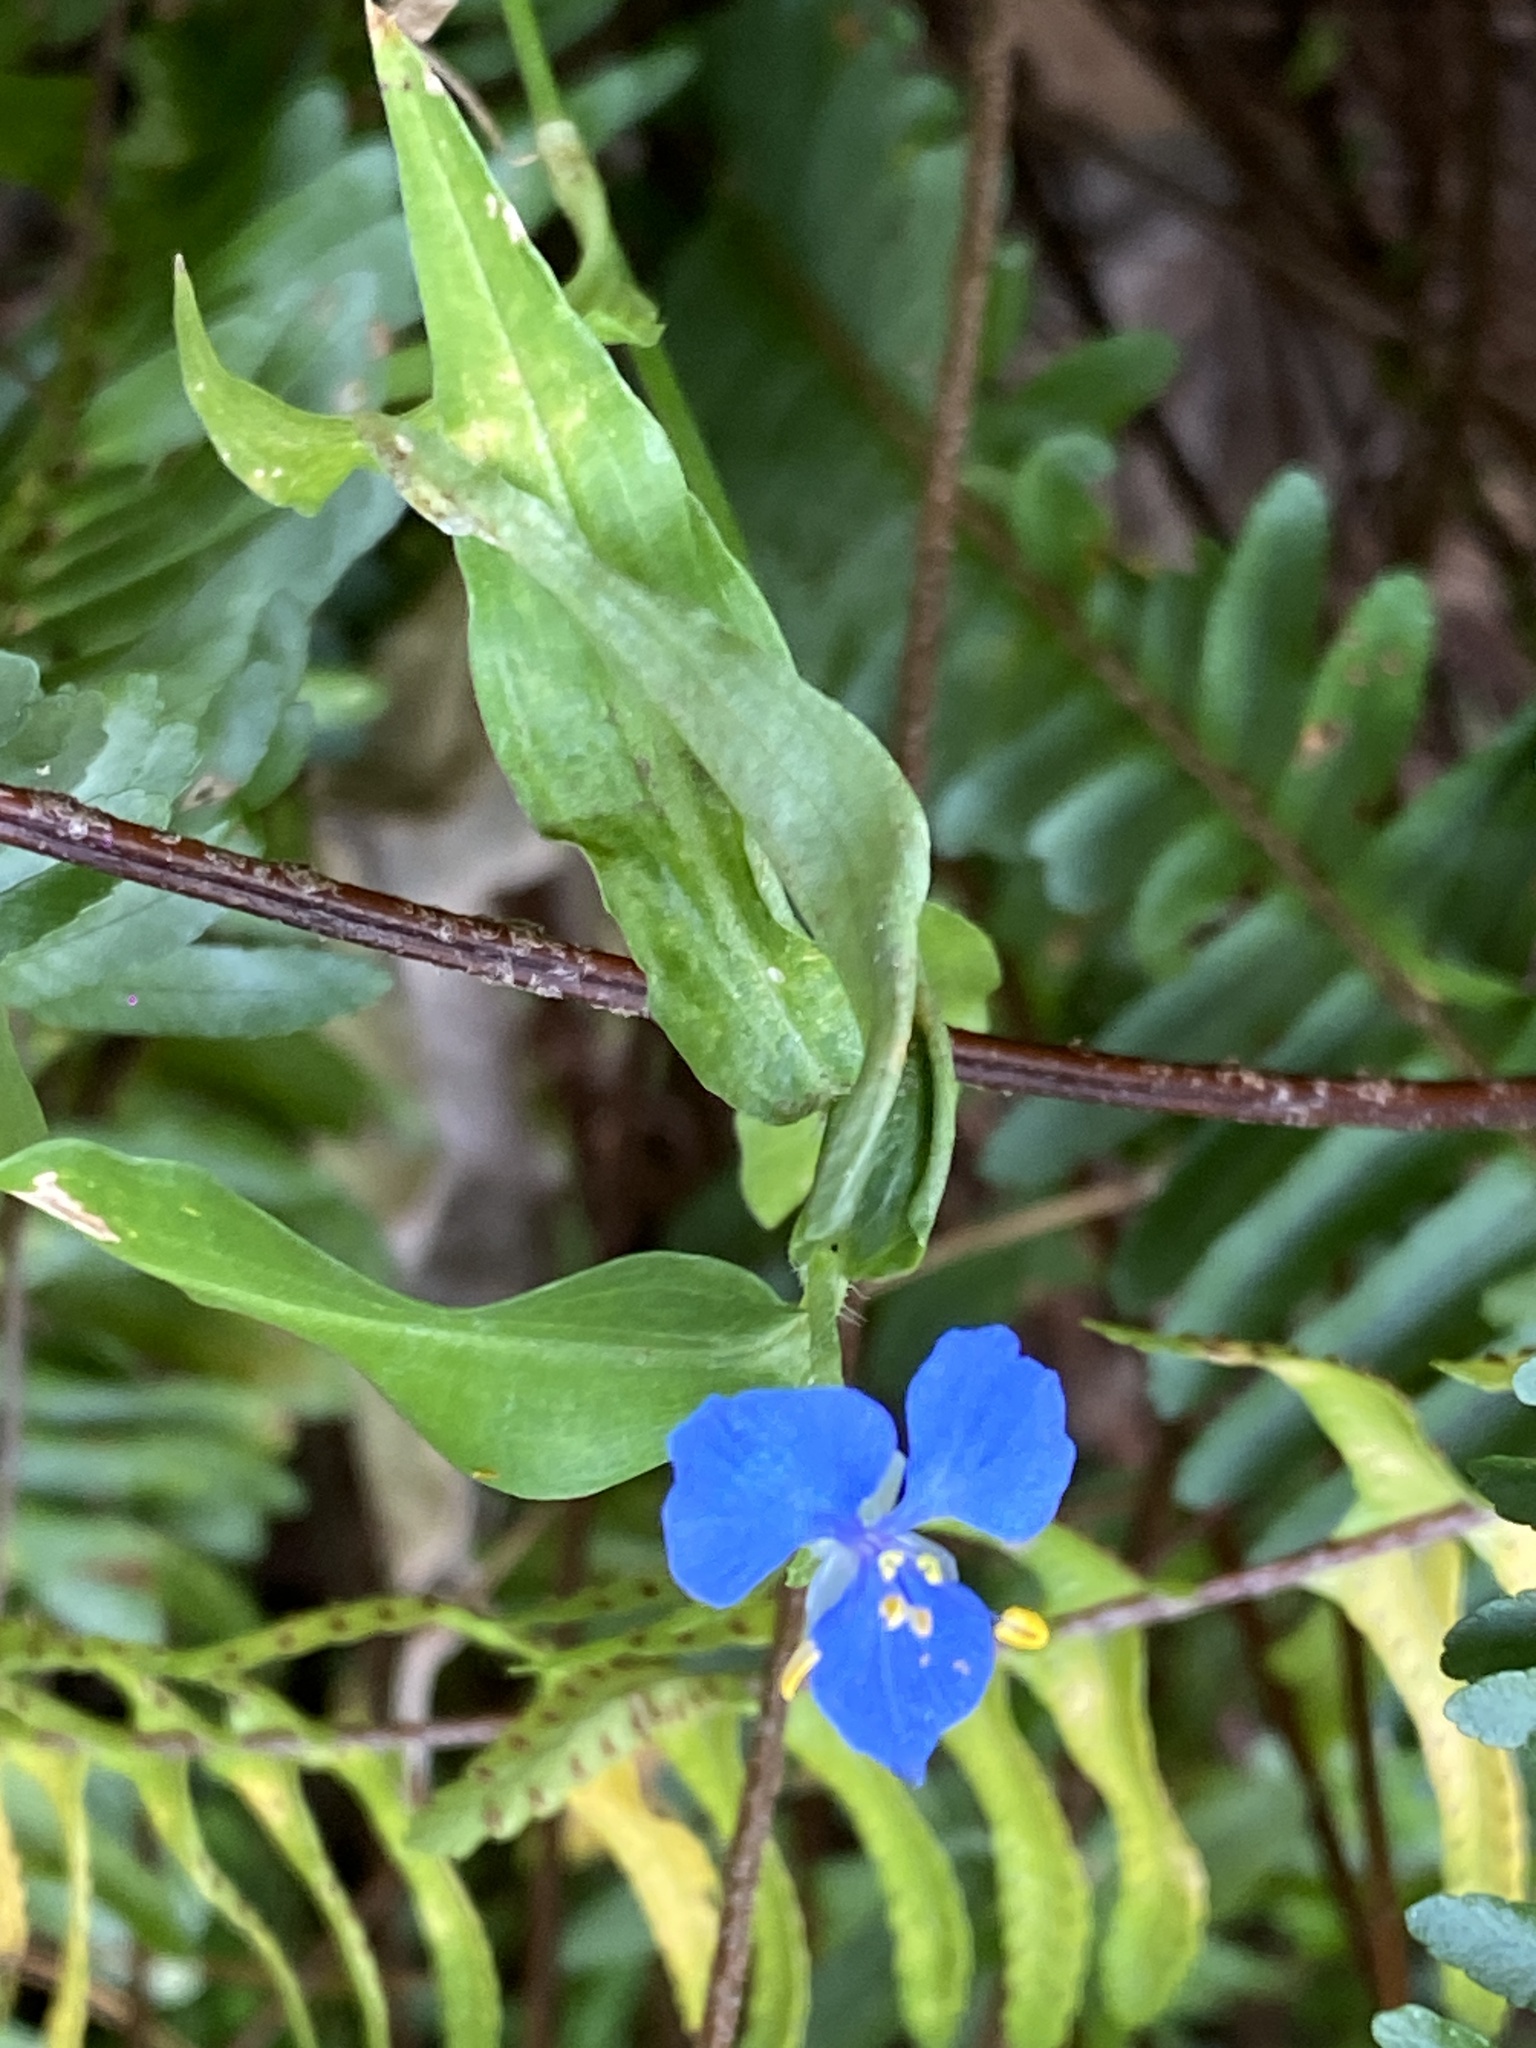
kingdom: Plantae
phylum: Tracheophyta
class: Liliopsida
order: Commelinales
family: Commelinaceae
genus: Commelina
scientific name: Commelina cyanea
